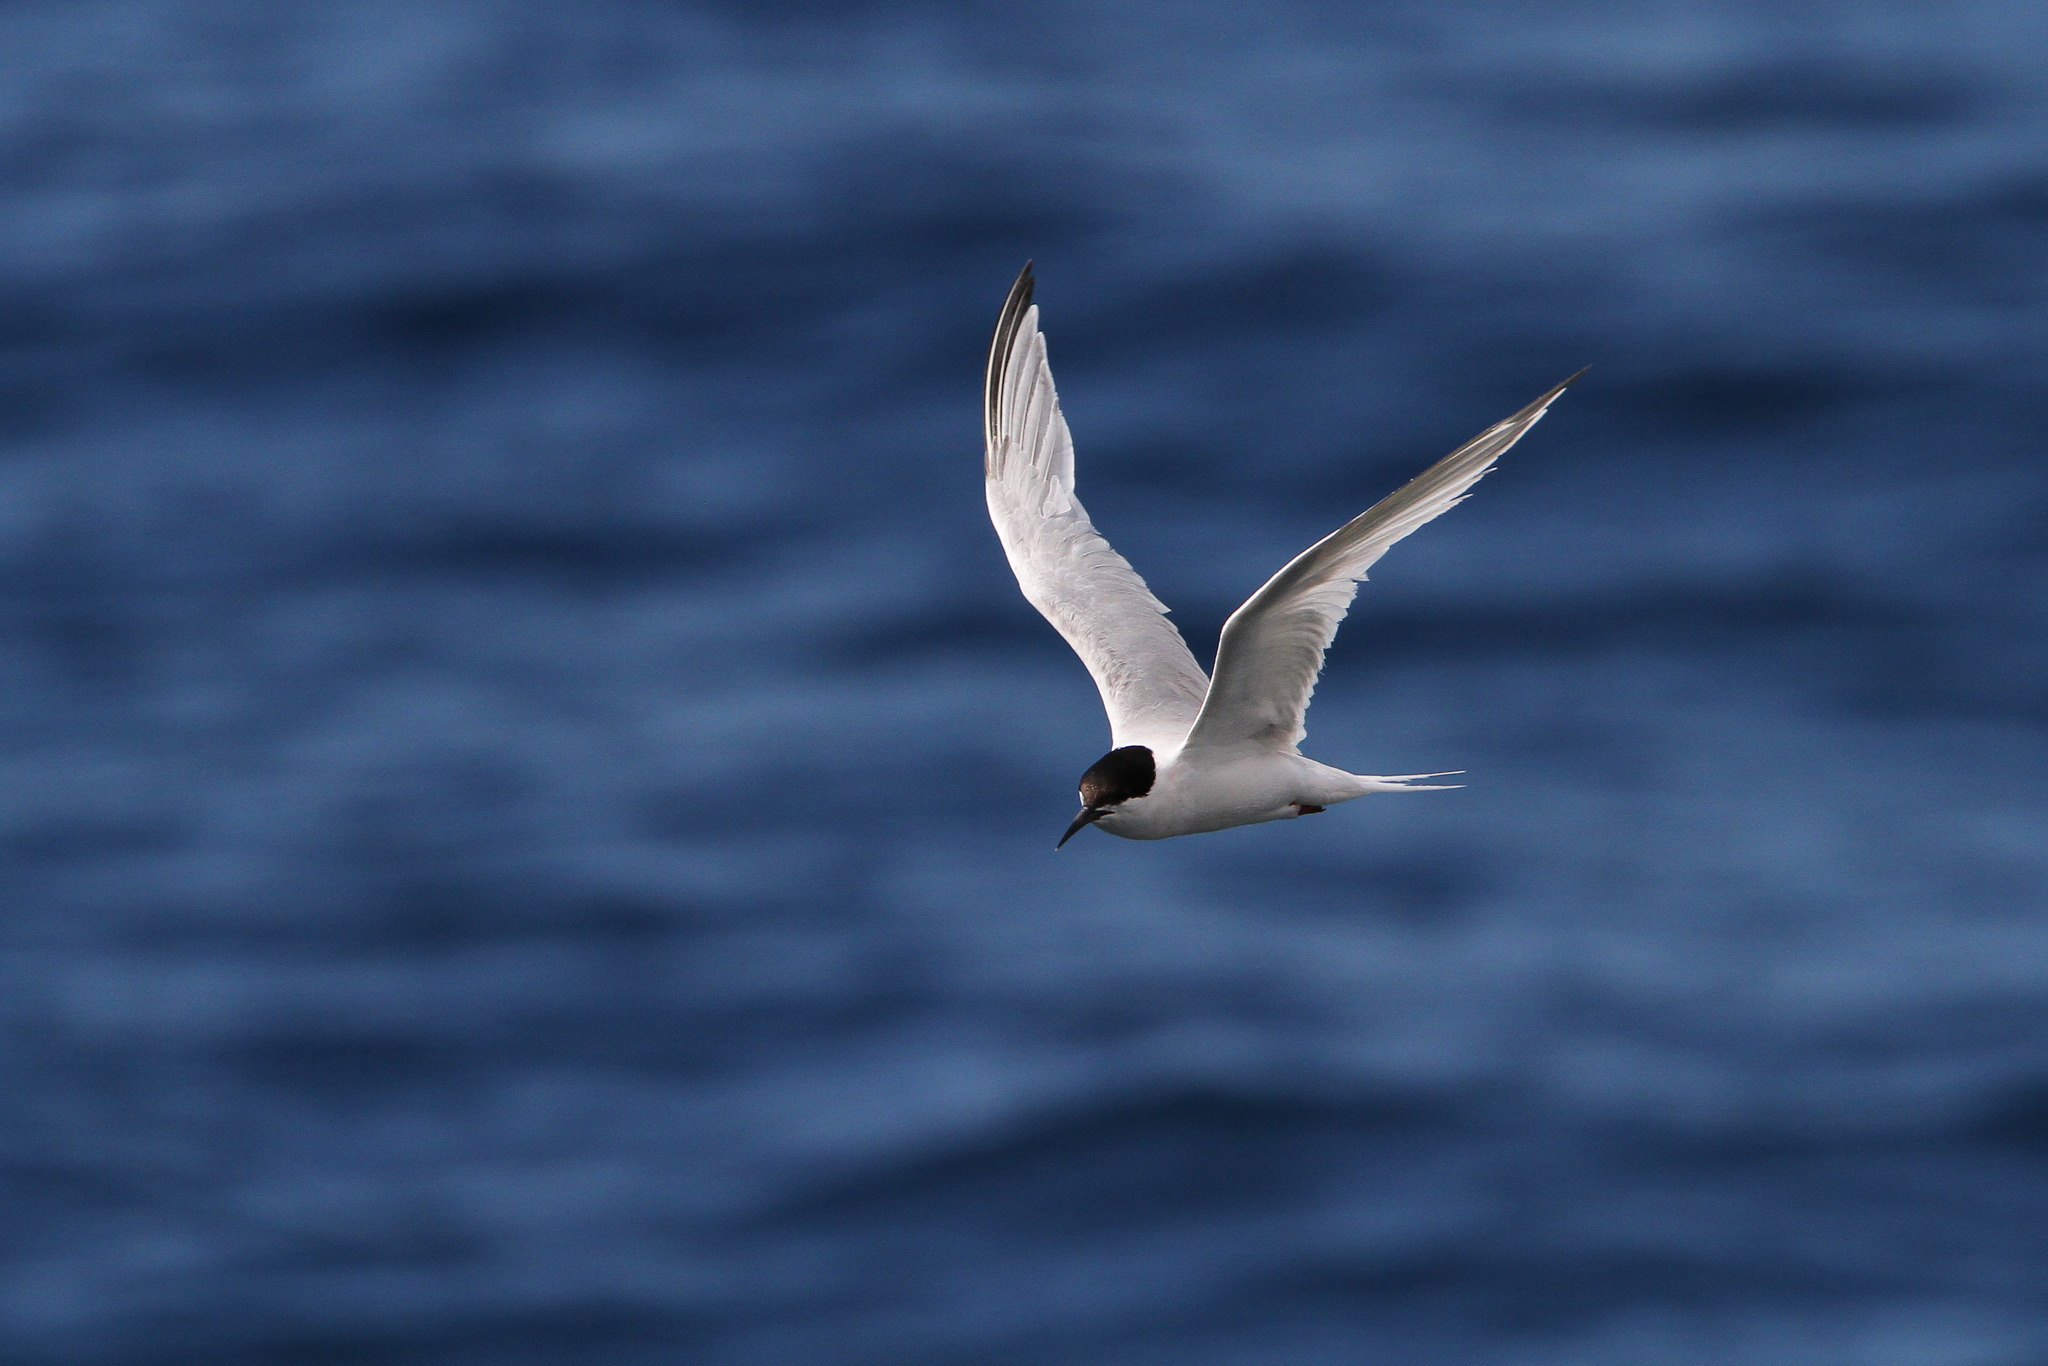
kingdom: Animalia
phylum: Chordata
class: Aves
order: Charadriiformes
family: Laridae
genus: Sterna
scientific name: Sterna dougallii
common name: Roseate tern
